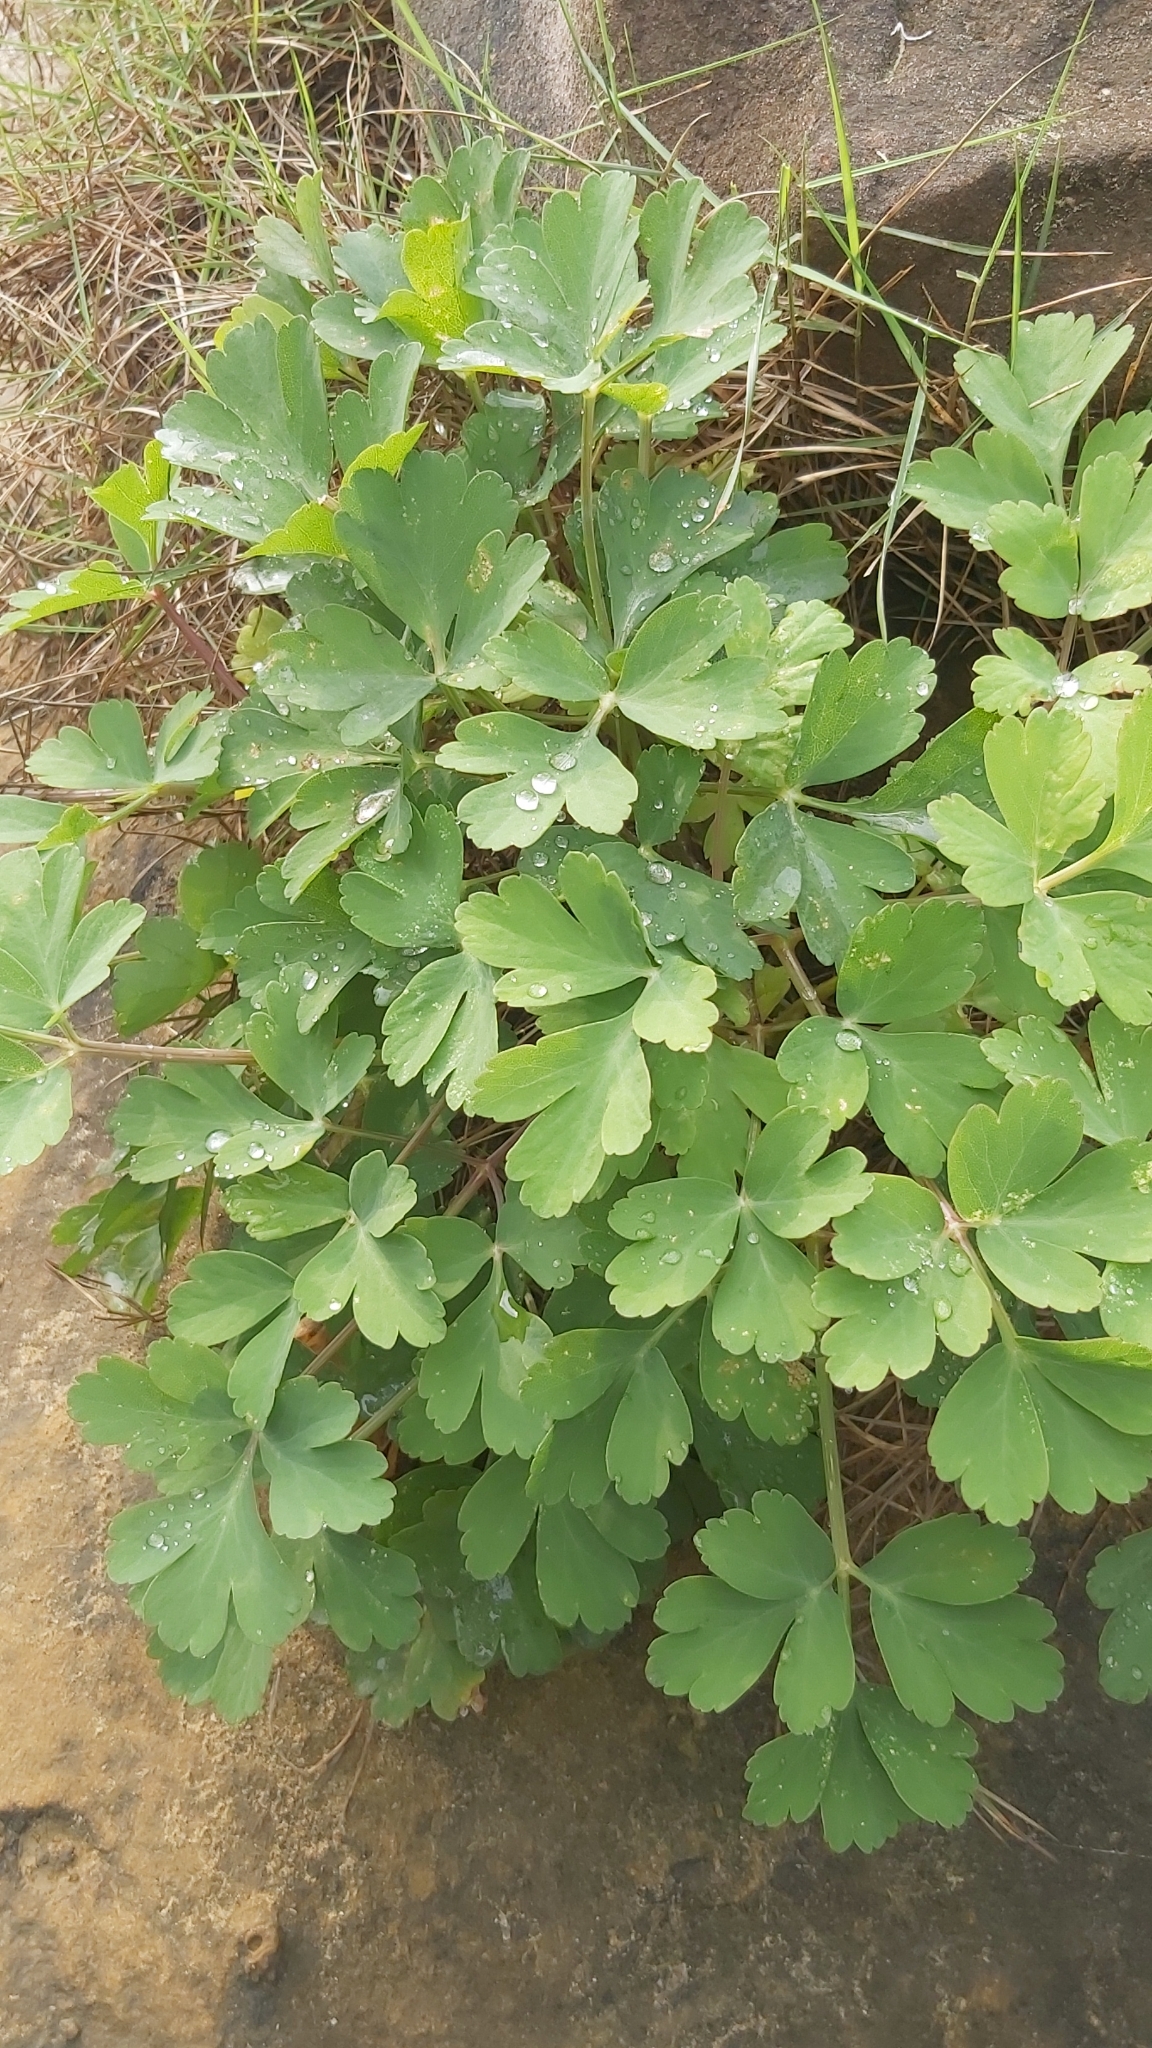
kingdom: Plantae
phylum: Tracheophyta
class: Magnoliopsida
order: Apiales
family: Apiaceae
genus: Peucedanum
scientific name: Peucedanum japonicum
